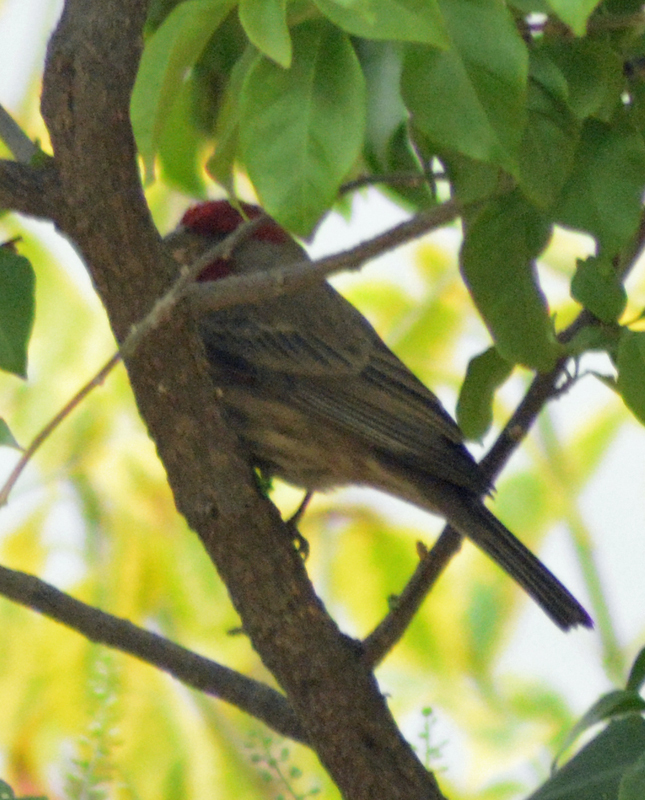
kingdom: Animalia
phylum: Chordata
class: Aves
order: Passeriformes
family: Fringillidae
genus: Haemorhous
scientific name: Haemorhous mexicanus
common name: House finch
